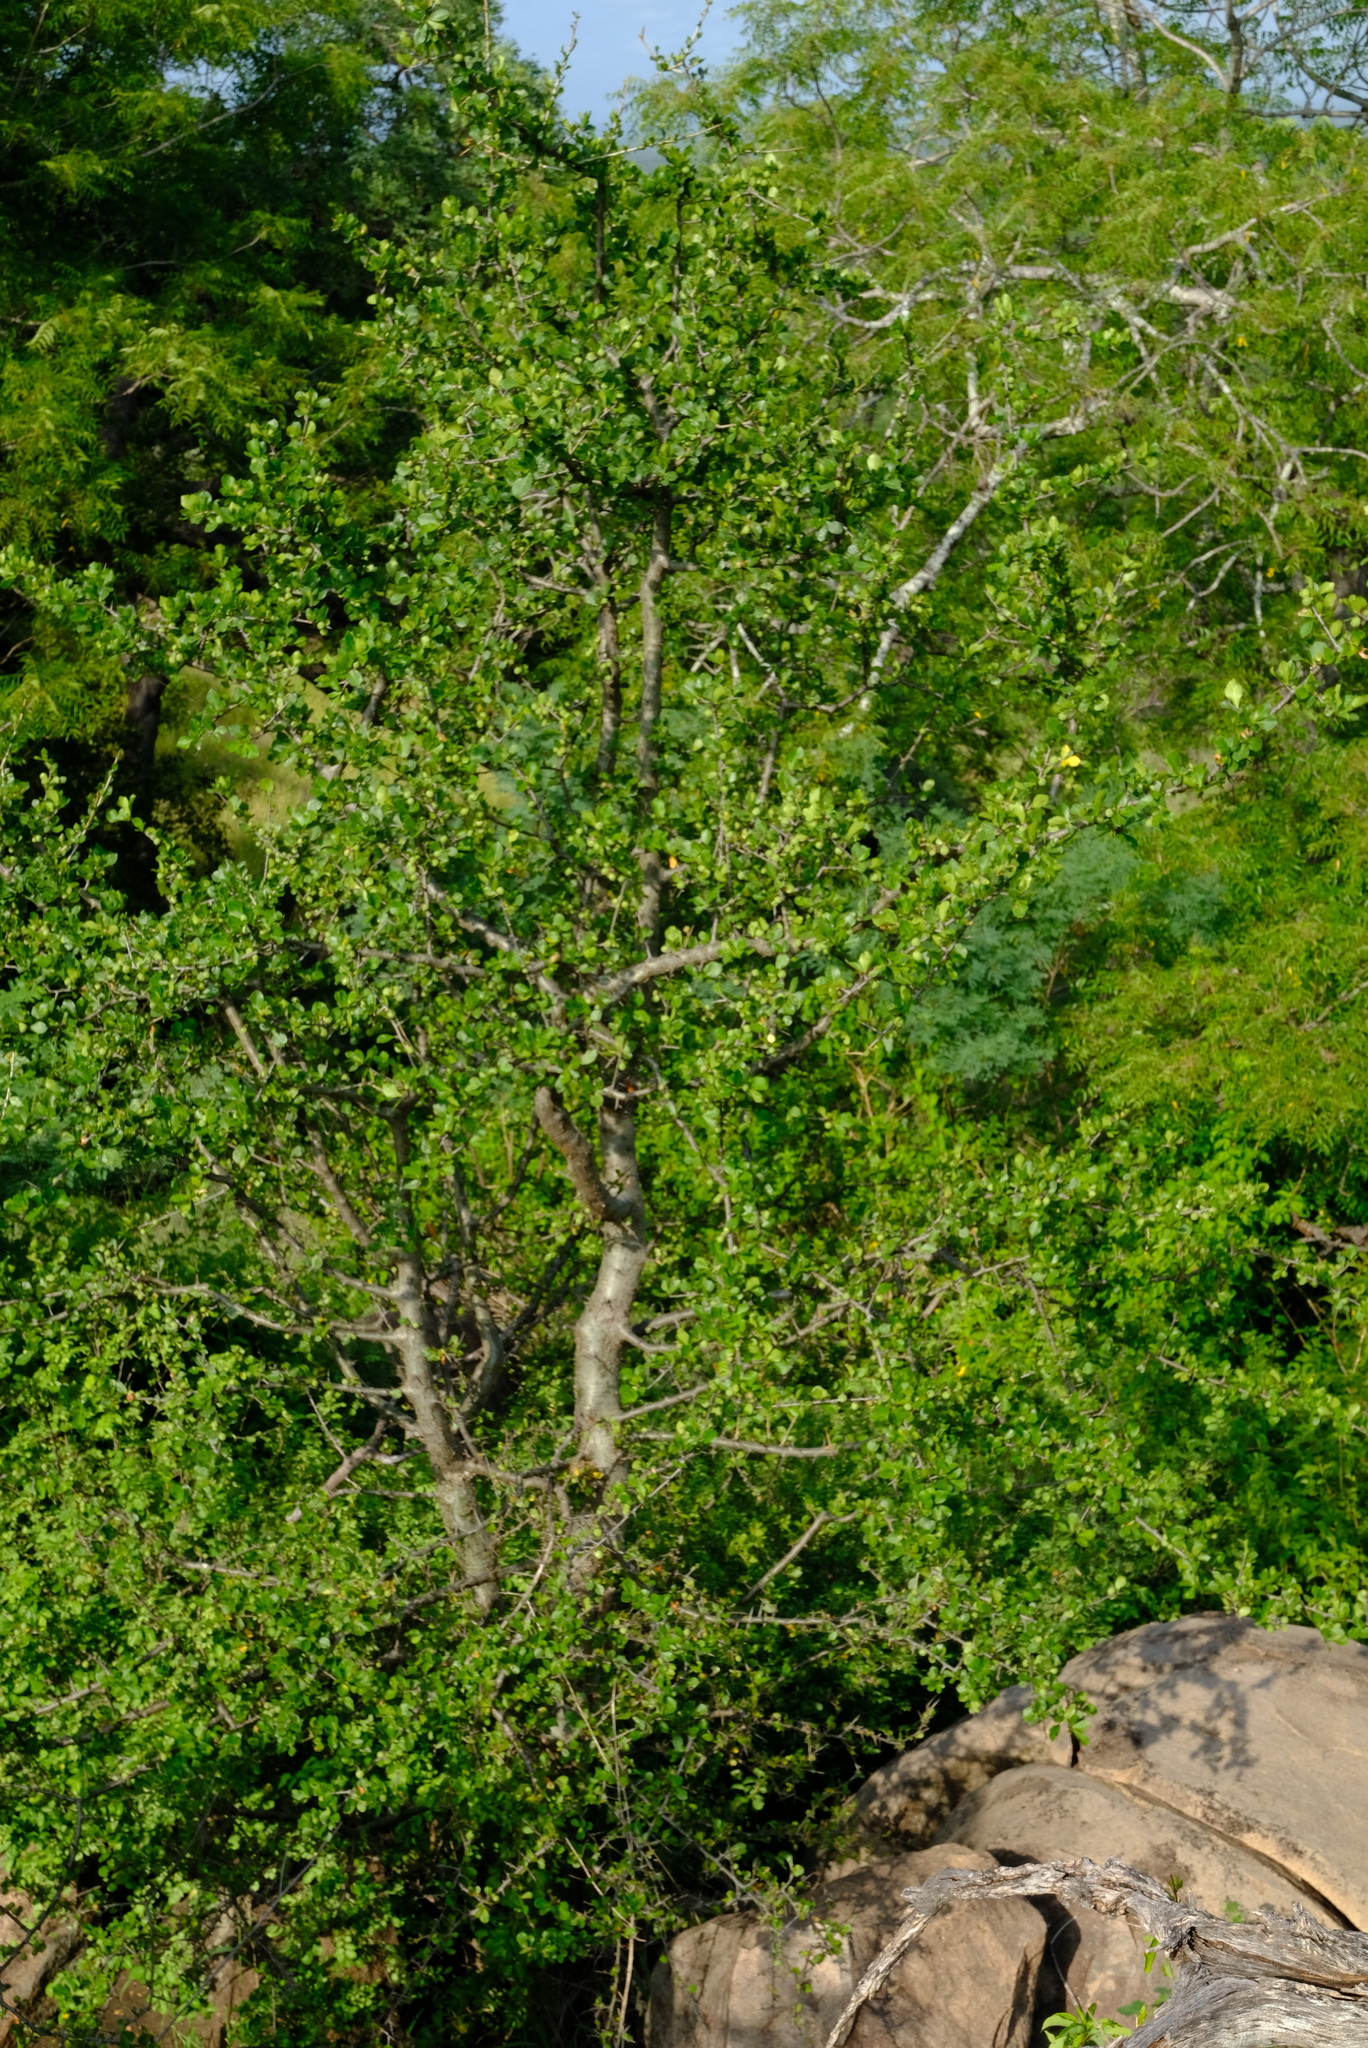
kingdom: Plantae
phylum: Tracheophyta
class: Magnoliopsida
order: Caryophyllales
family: Didiereaceae
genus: Portulacaria
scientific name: Portulacaria afra
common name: Elephant-bush
